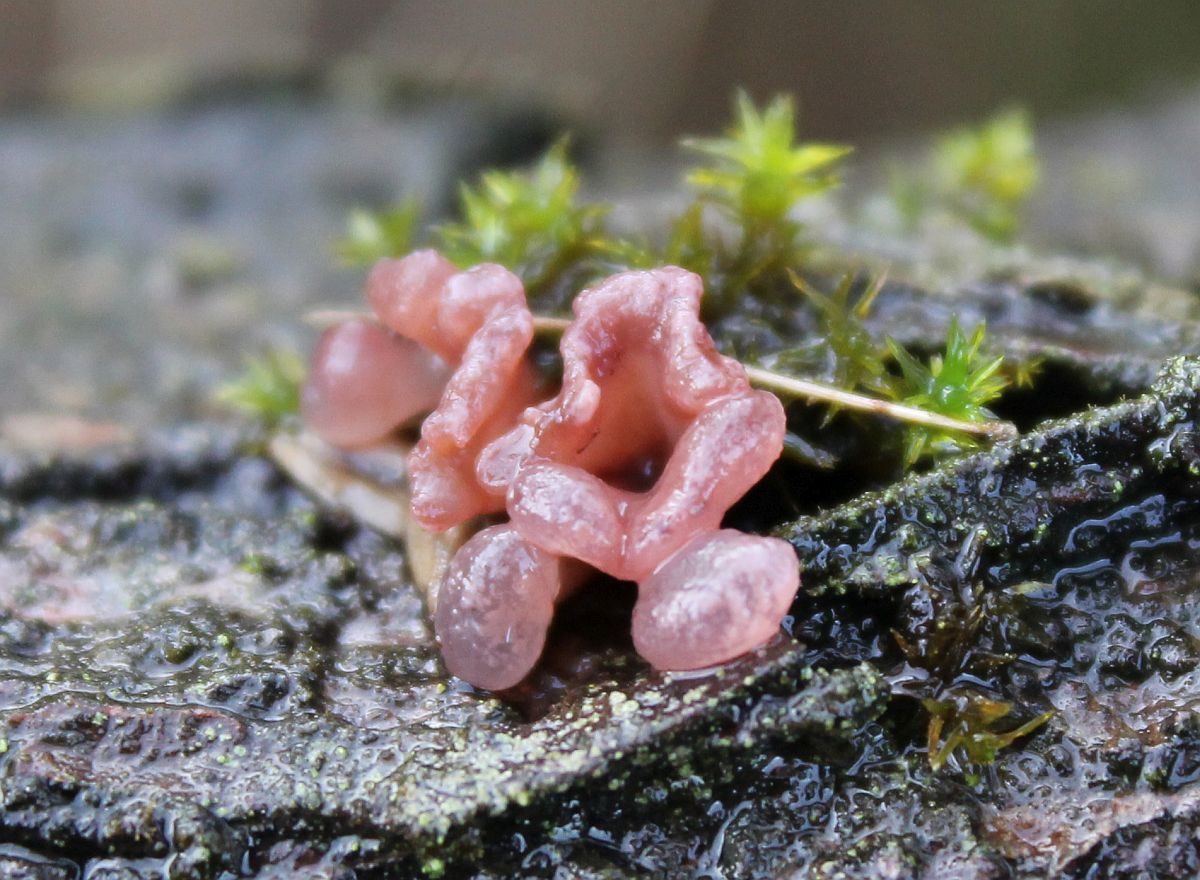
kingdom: Fungi
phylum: Ascomycota
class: Leotiomycetes
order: Helotiales
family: Gelatinodiscaceae
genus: Ascocoryne
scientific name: Ascocoryne sarcoides
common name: Purple jellydisc
